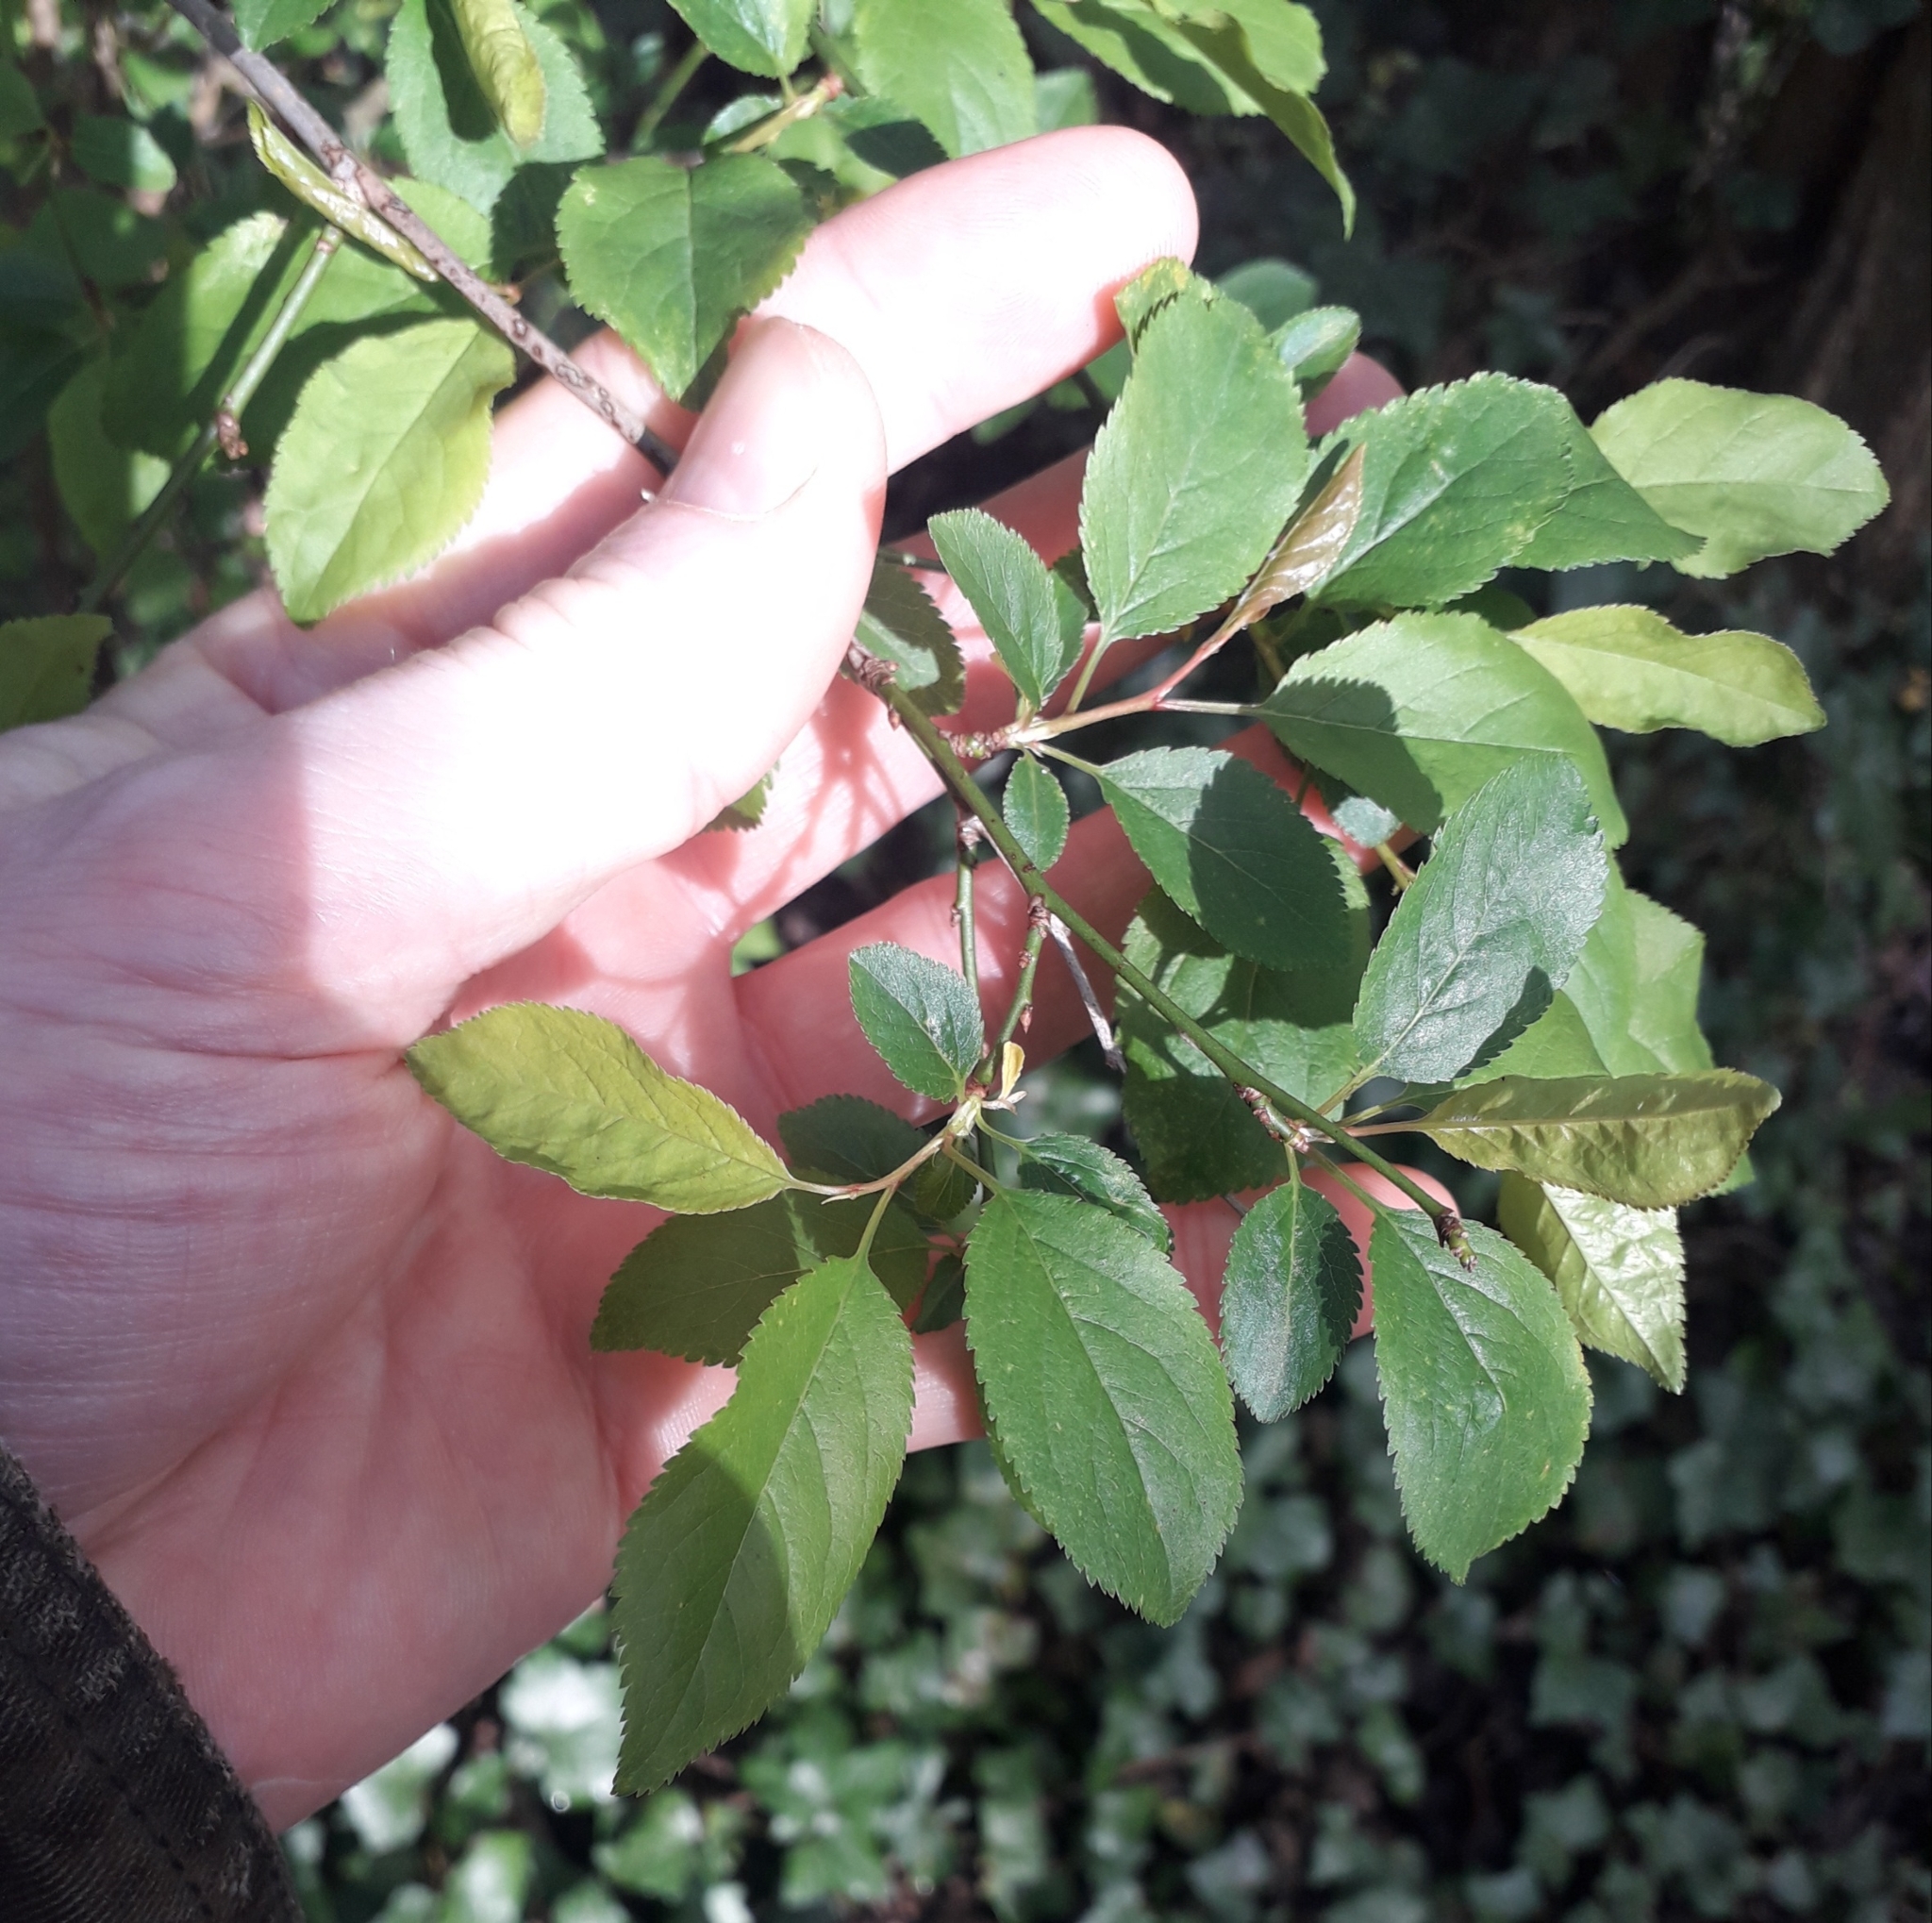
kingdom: Plantae
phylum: Tracheophyta
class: Magnoliopsida
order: Rosales
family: Rosaceae
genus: Prunus
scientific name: Prunus spinosa
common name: Blackthorn
